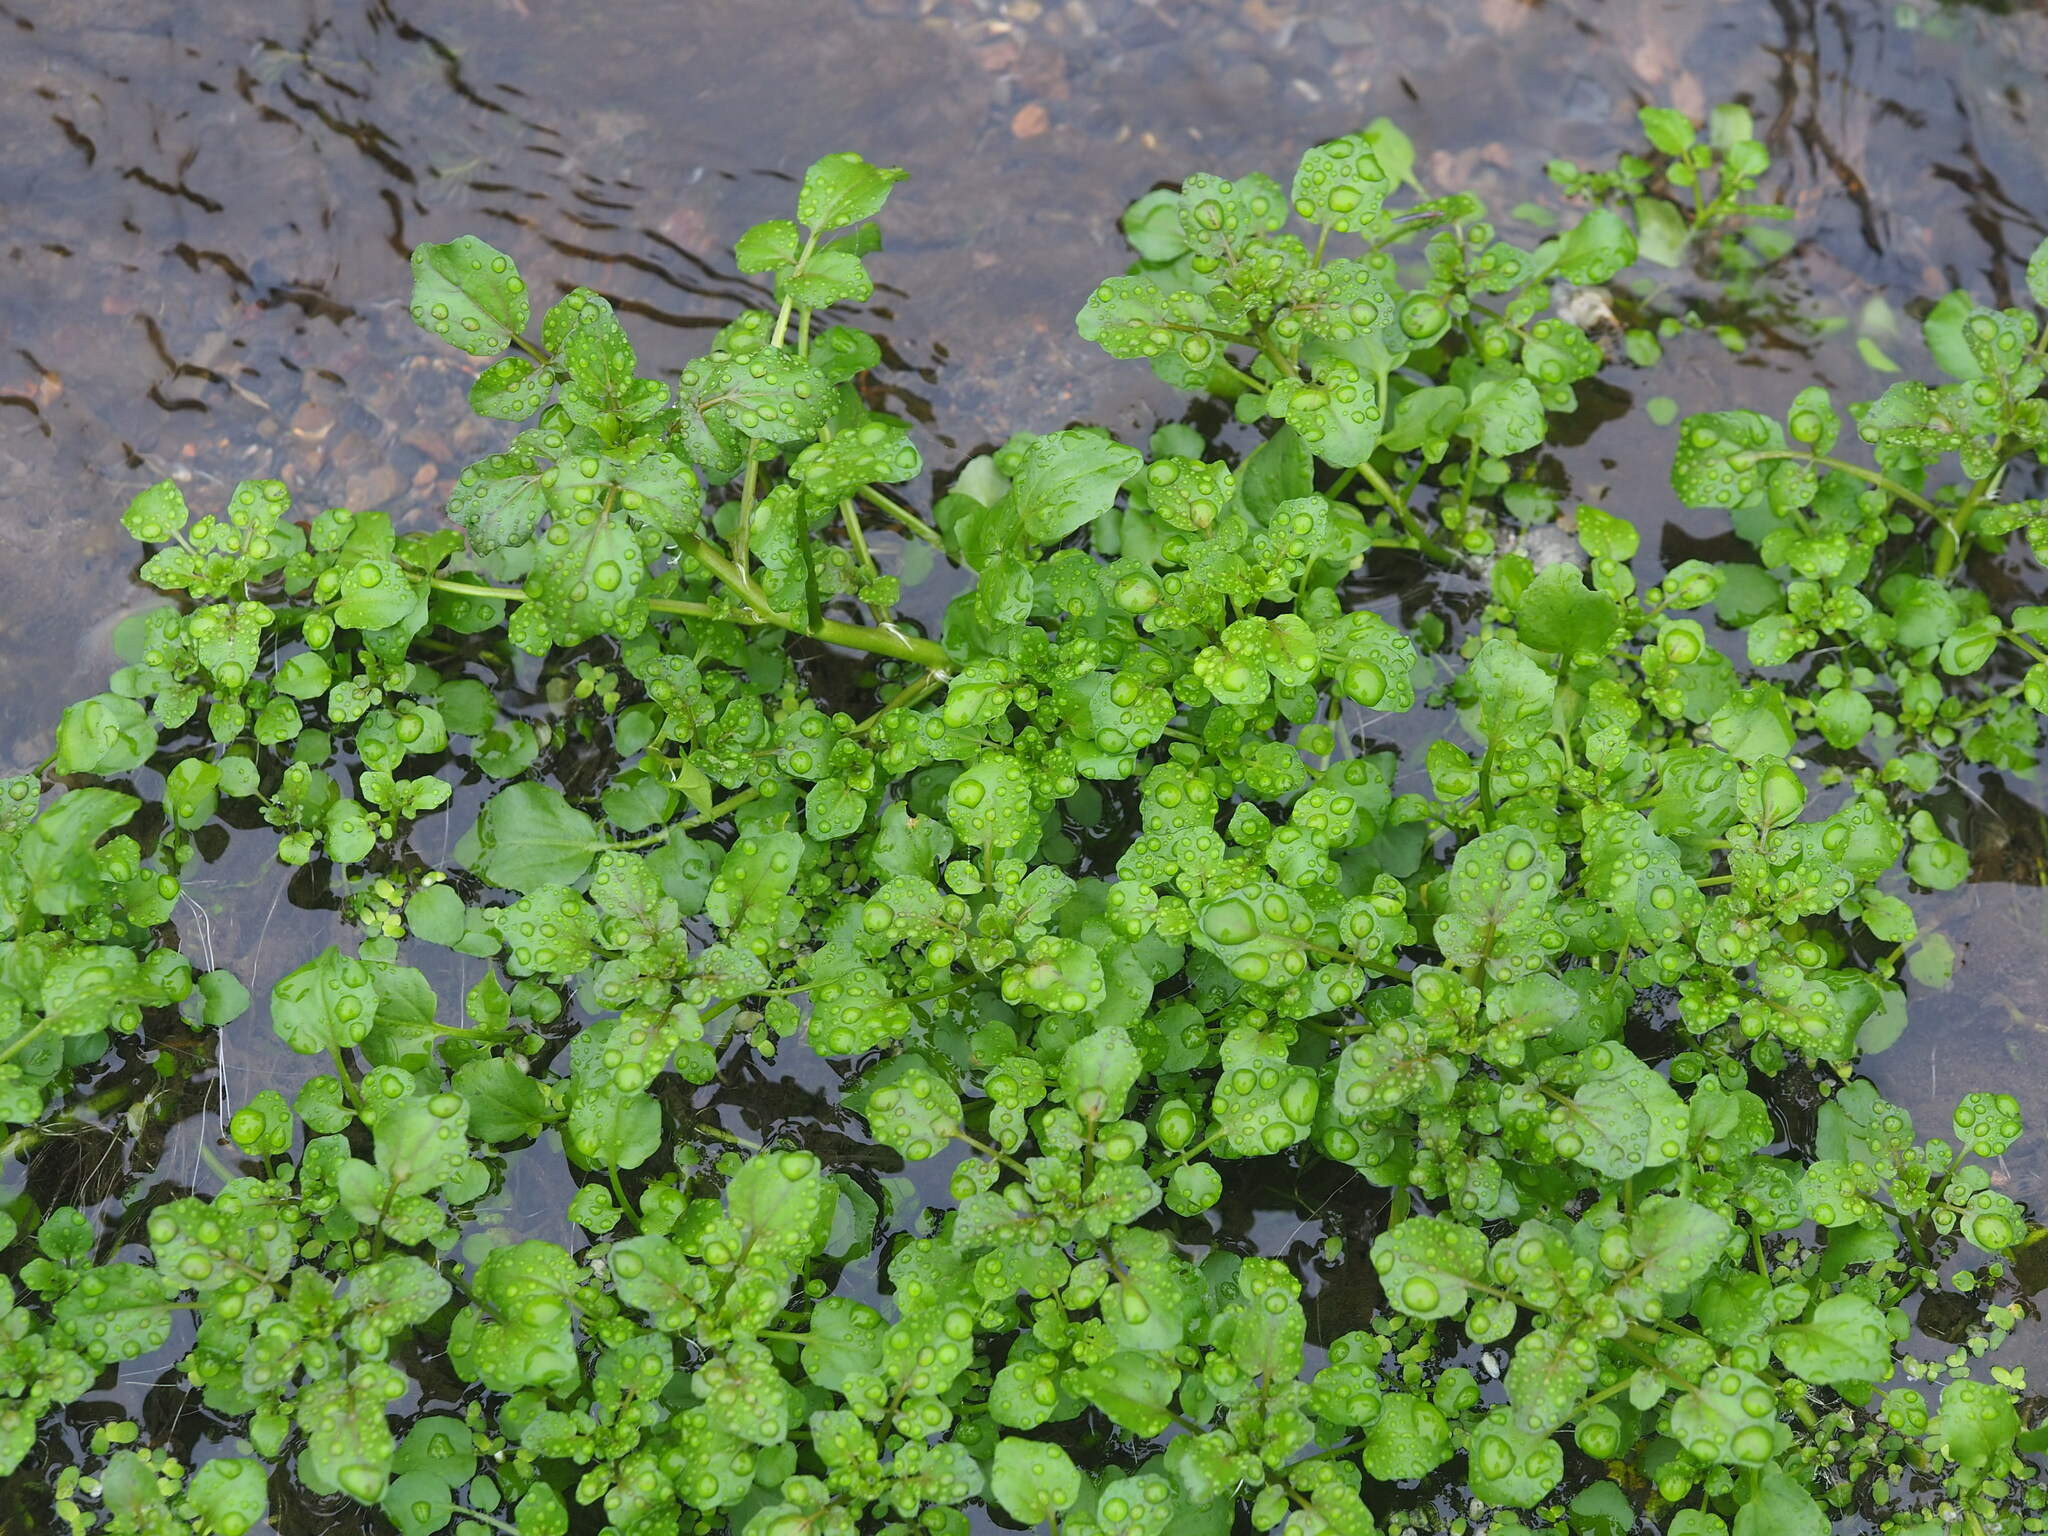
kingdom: Plantae
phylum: Tracheophyta
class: Magnoliopsida
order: Brassicales
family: Brassicaceae
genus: Nasturtium
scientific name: Nasturtium officinale
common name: Watercress
